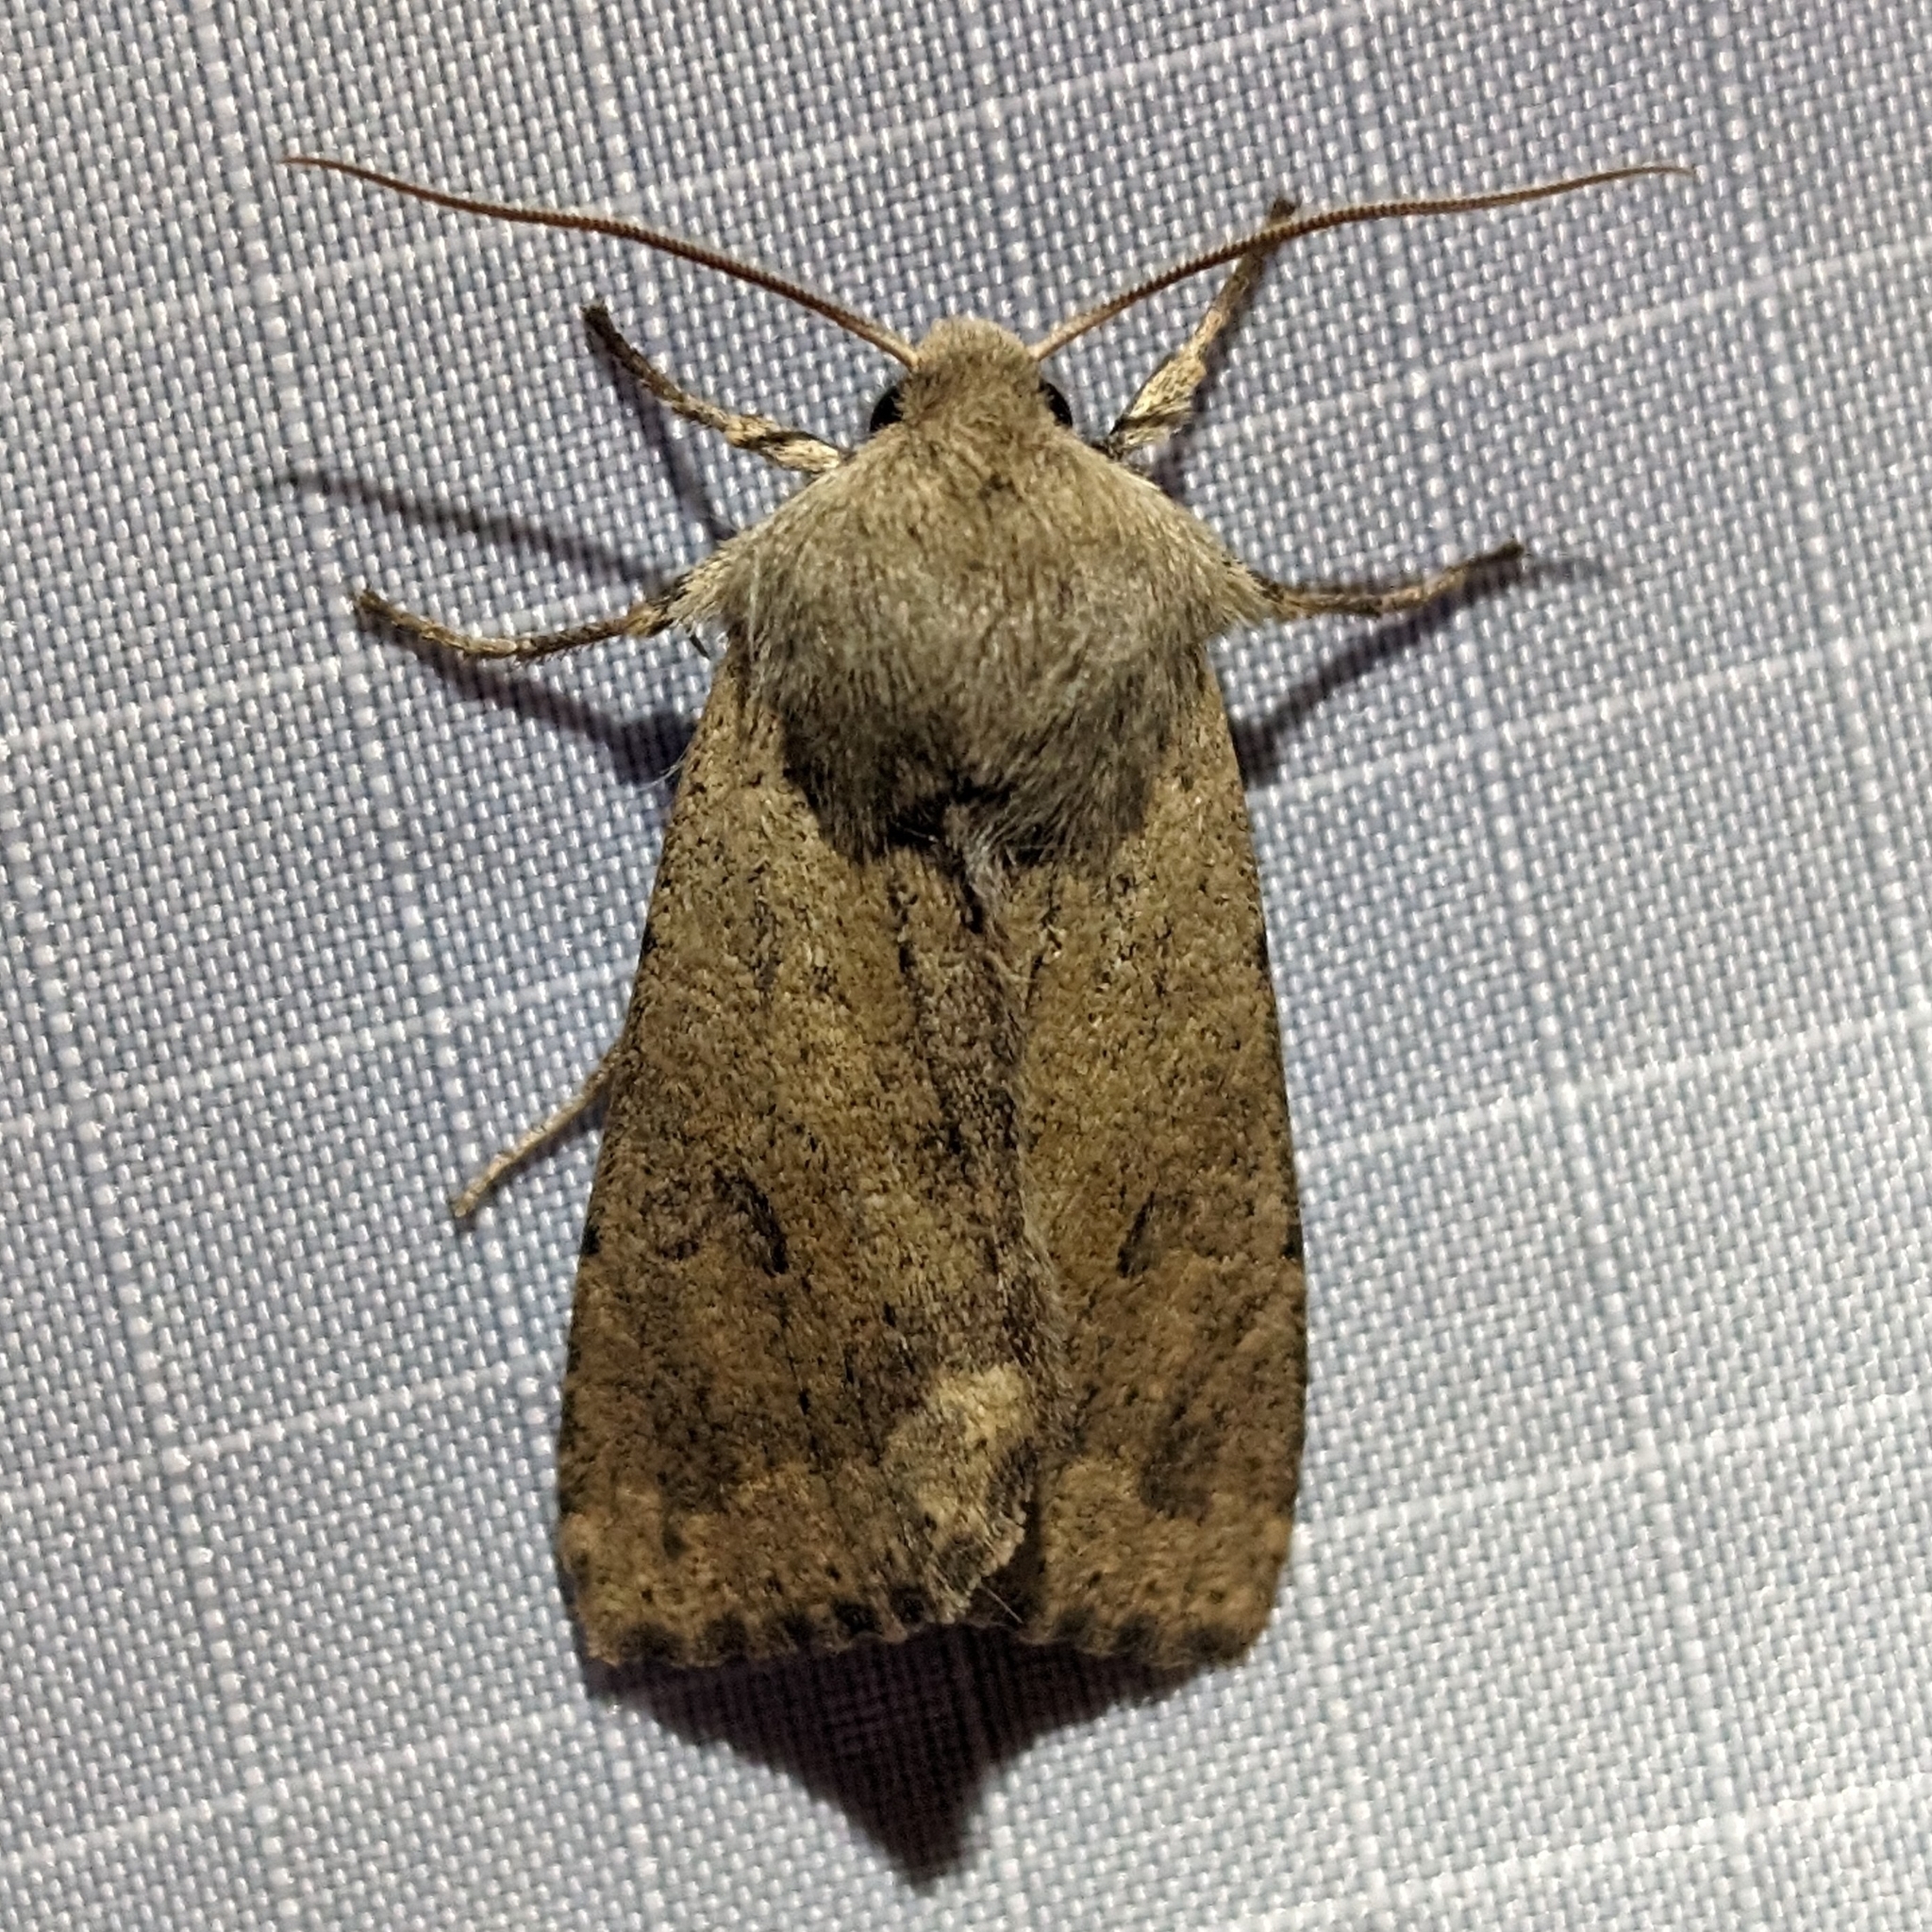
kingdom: Animalia
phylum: Arthropoda
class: Insecta
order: Lepidoptera
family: Noctuidae
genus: Orthosia
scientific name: Orthosia pacifica
